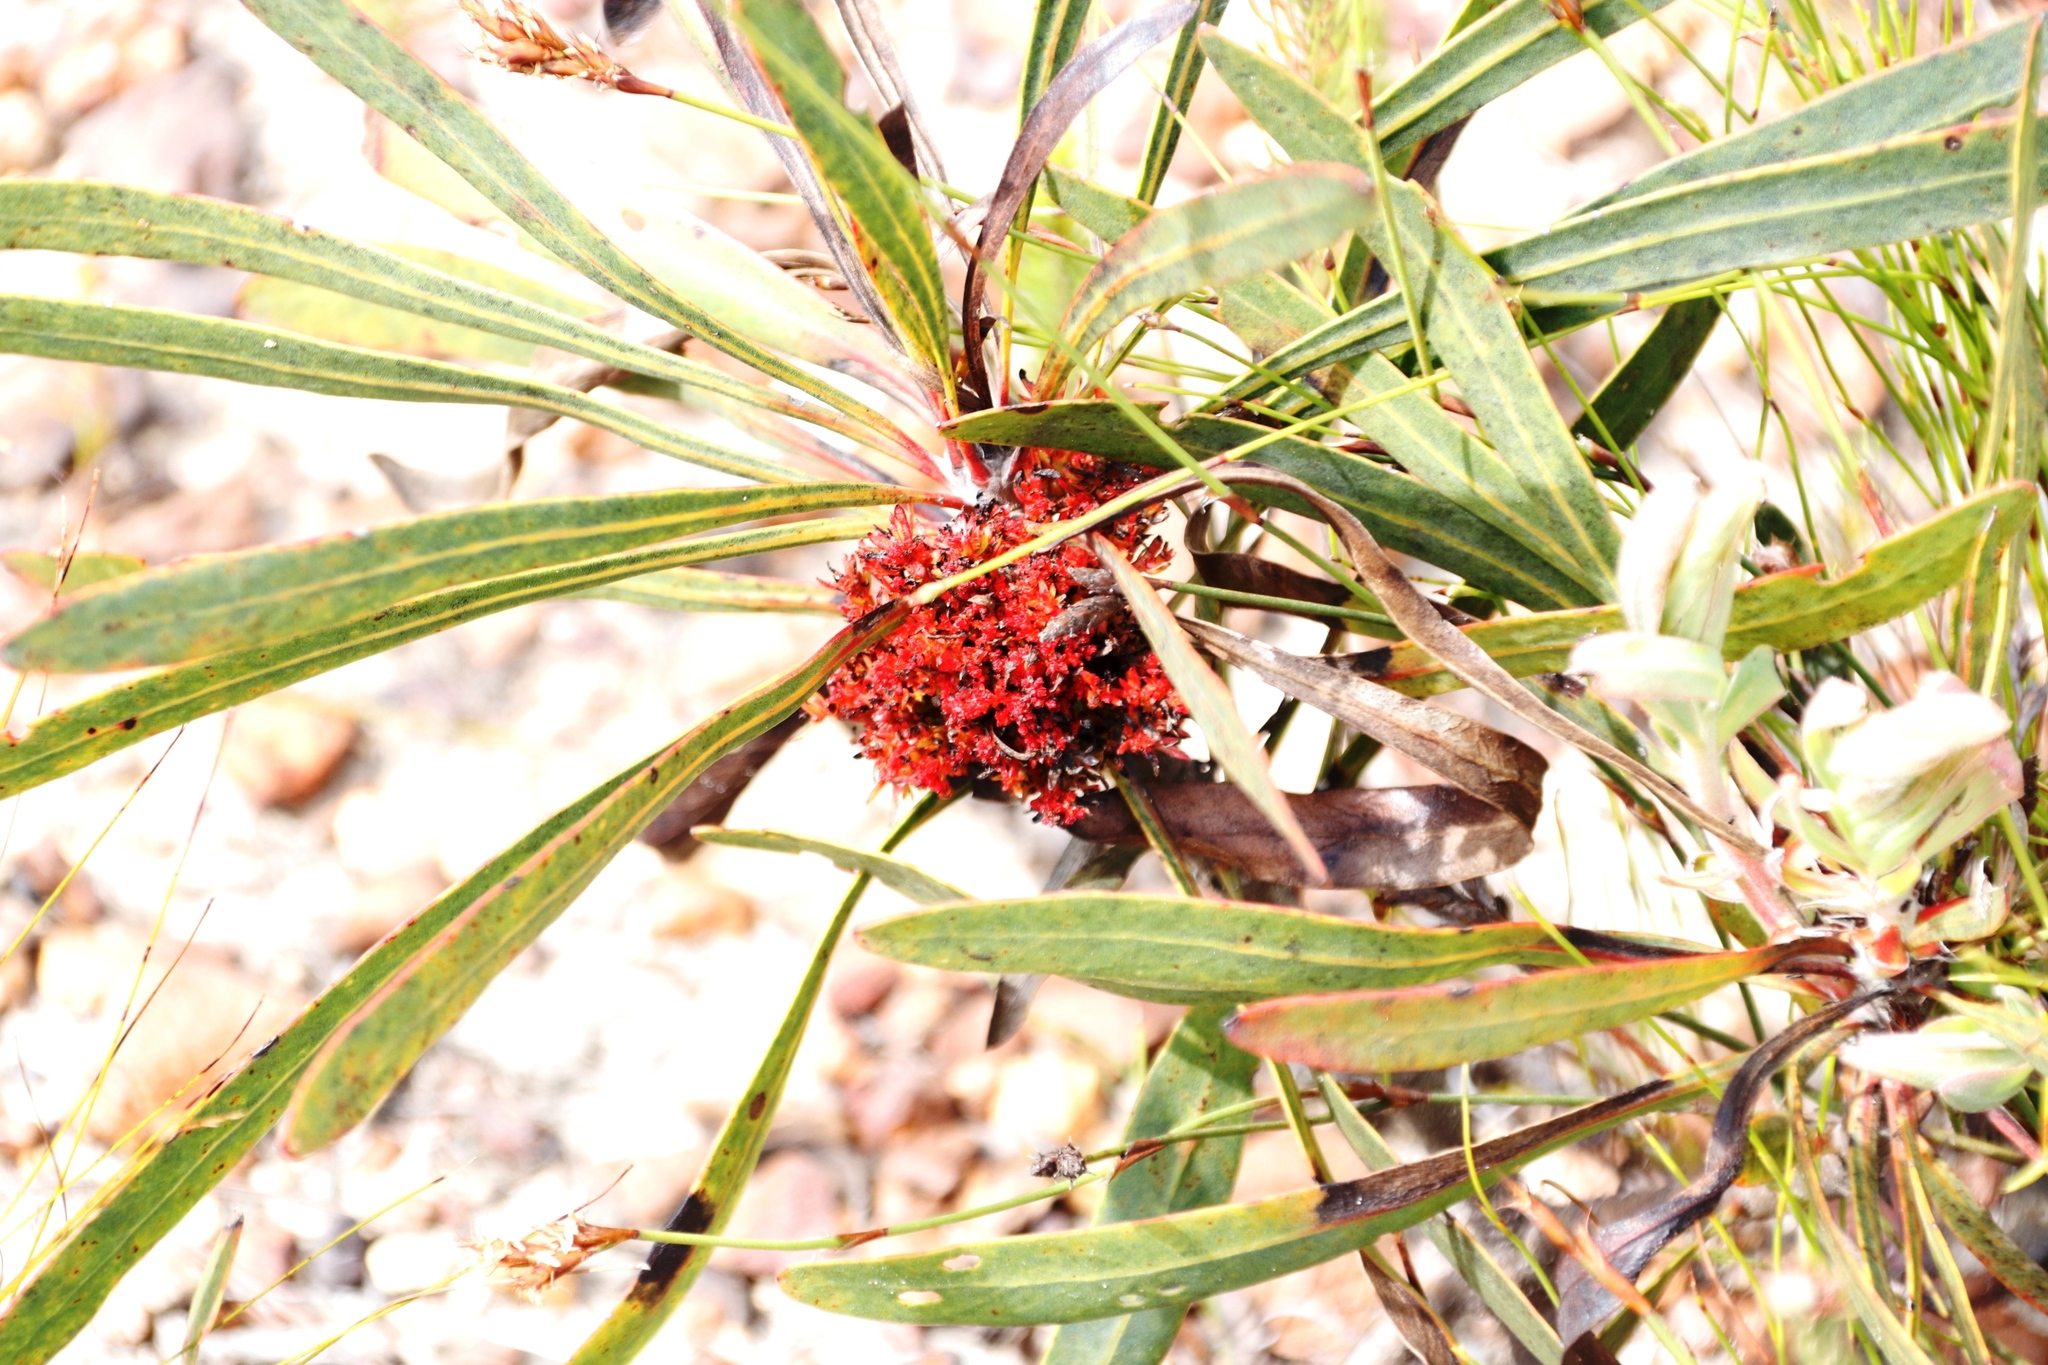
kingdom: Plantae
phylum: Tracheophyta
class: Magnoliopsida
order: Proteales
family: Proteaceae
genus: Protea
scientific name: Protea longifolia
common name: Long-leaf sugarbush
